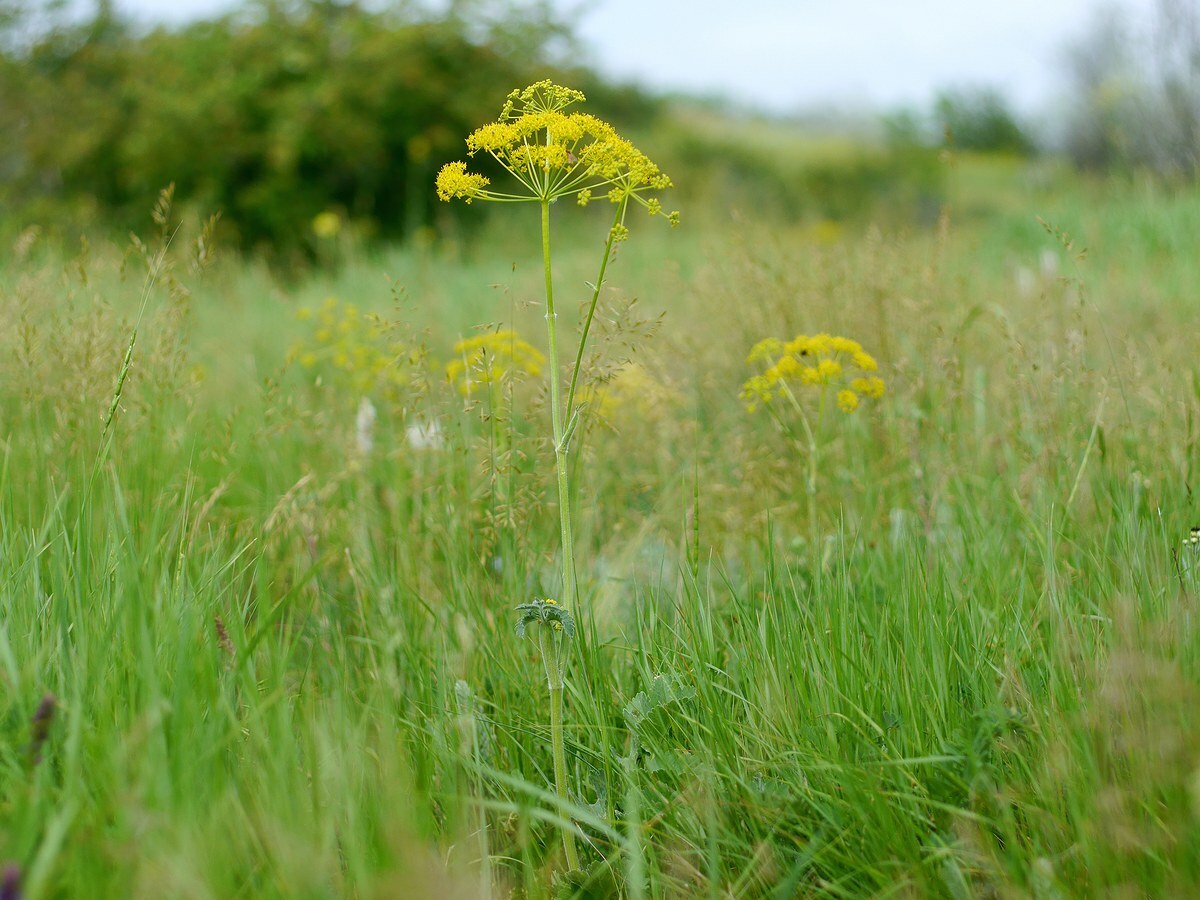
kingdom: Plantae
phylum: Tracheophyta
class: Magnoliopsida
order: Apiales
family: Apiaceae
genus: Pastinaca
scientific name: Pastinaca clausii
